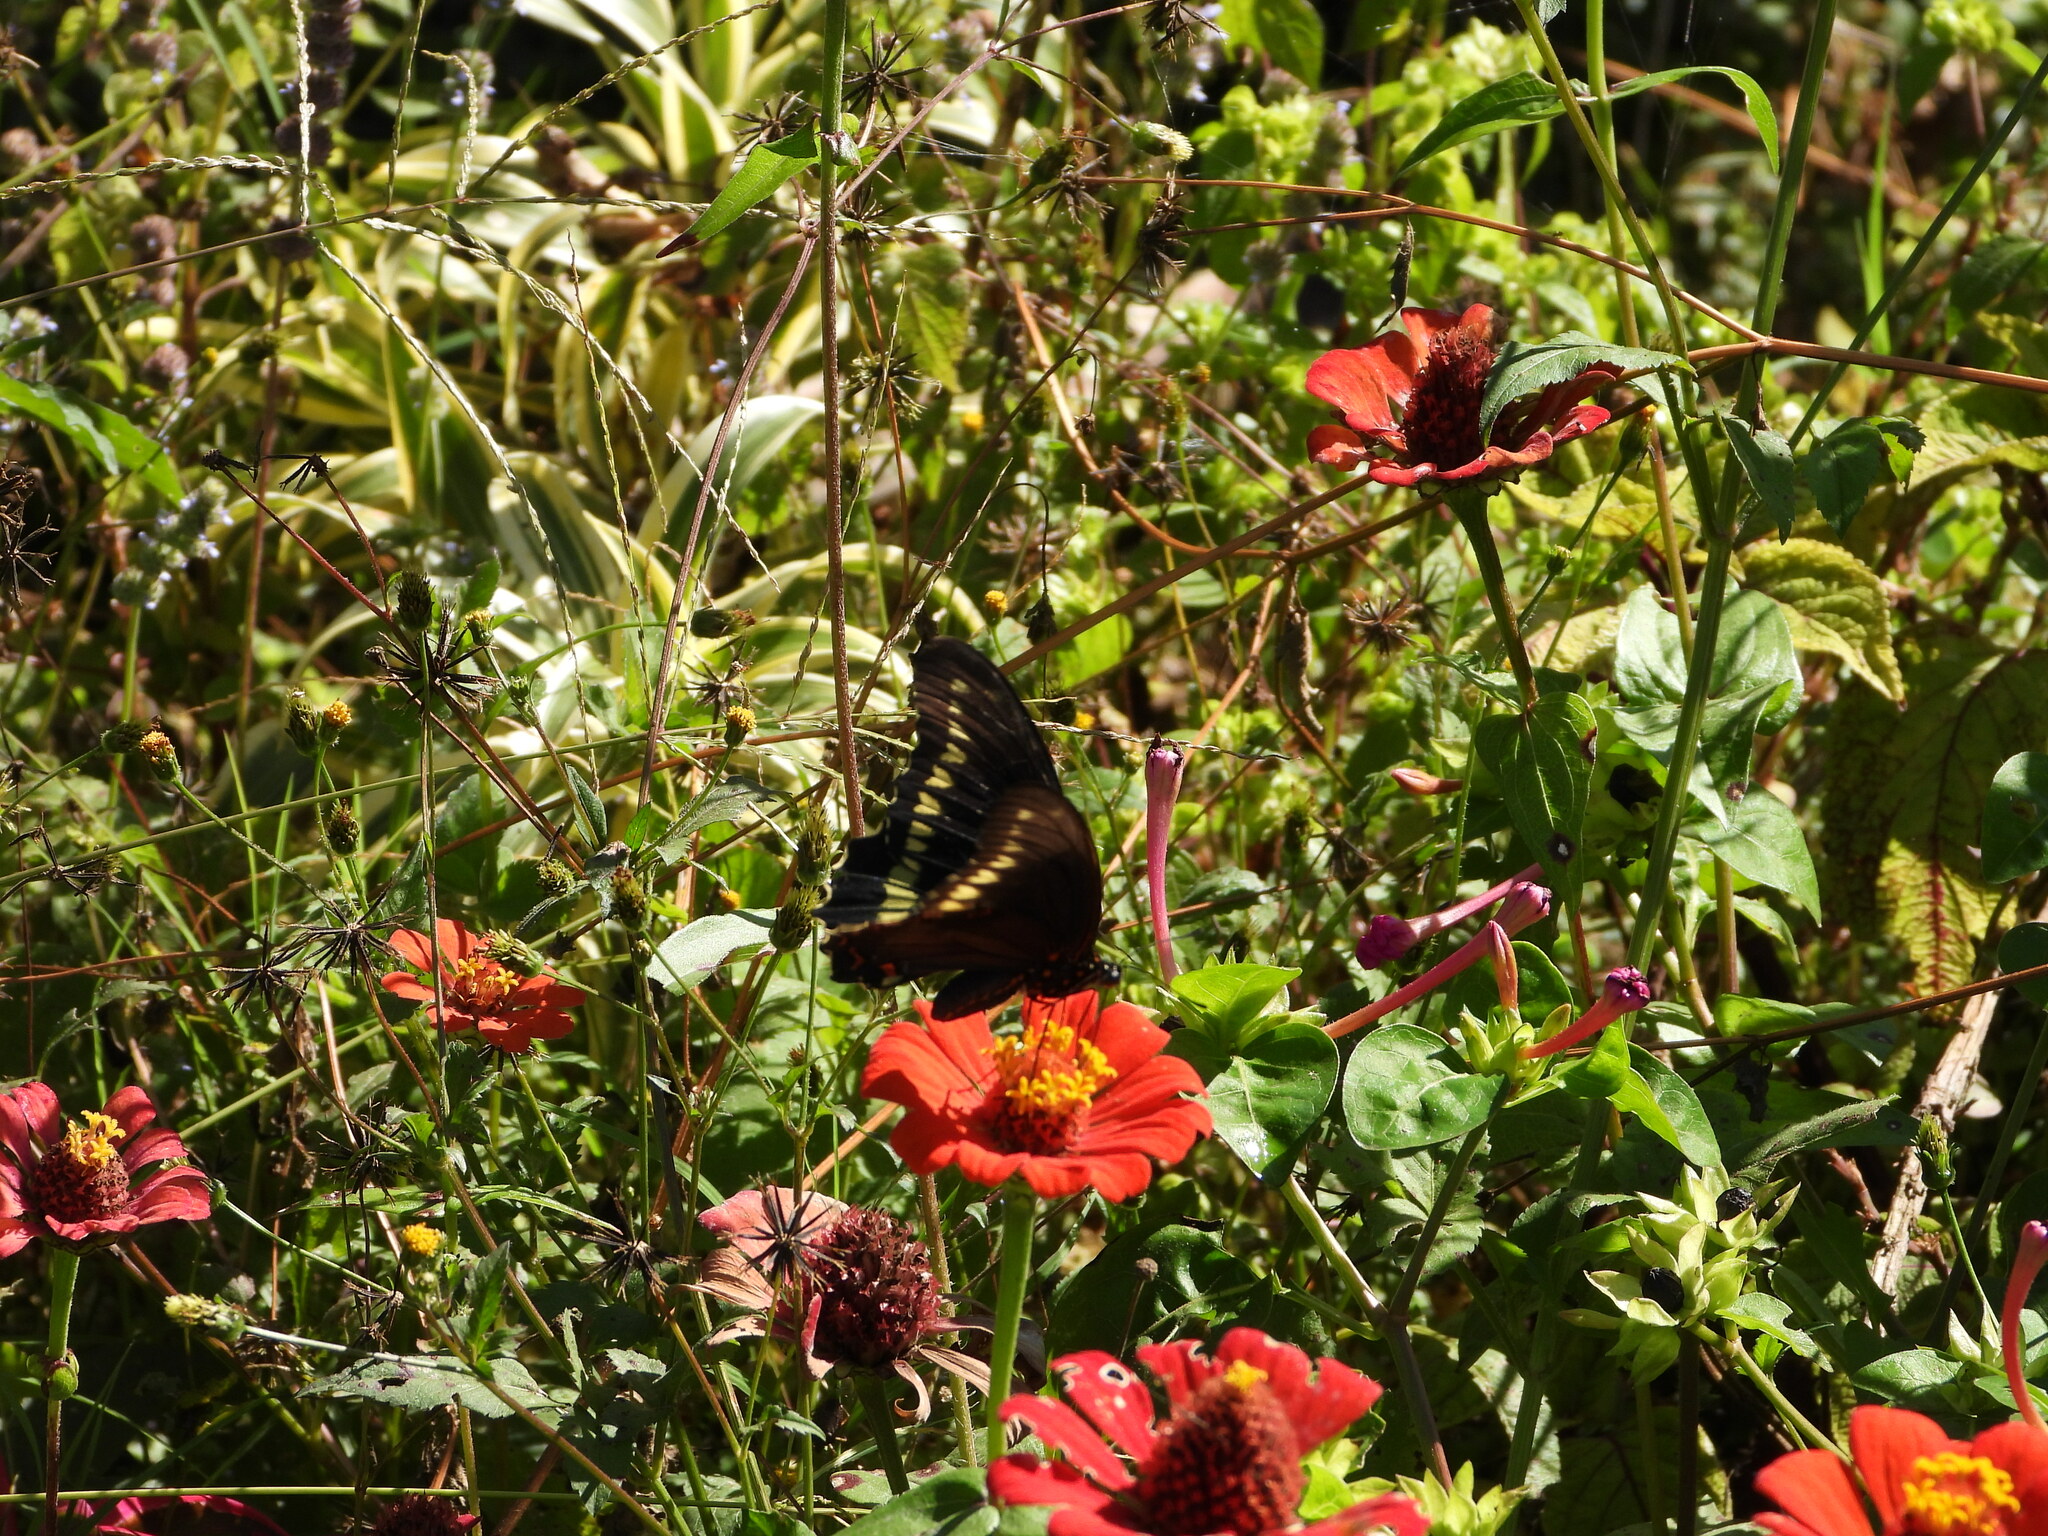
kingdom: Animalia
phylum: Arthropoda
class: Insecta
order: Lepidoptera
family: Papilionidae
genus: Battus
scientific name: Battus polydamas
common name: Polydamas swallowtail
